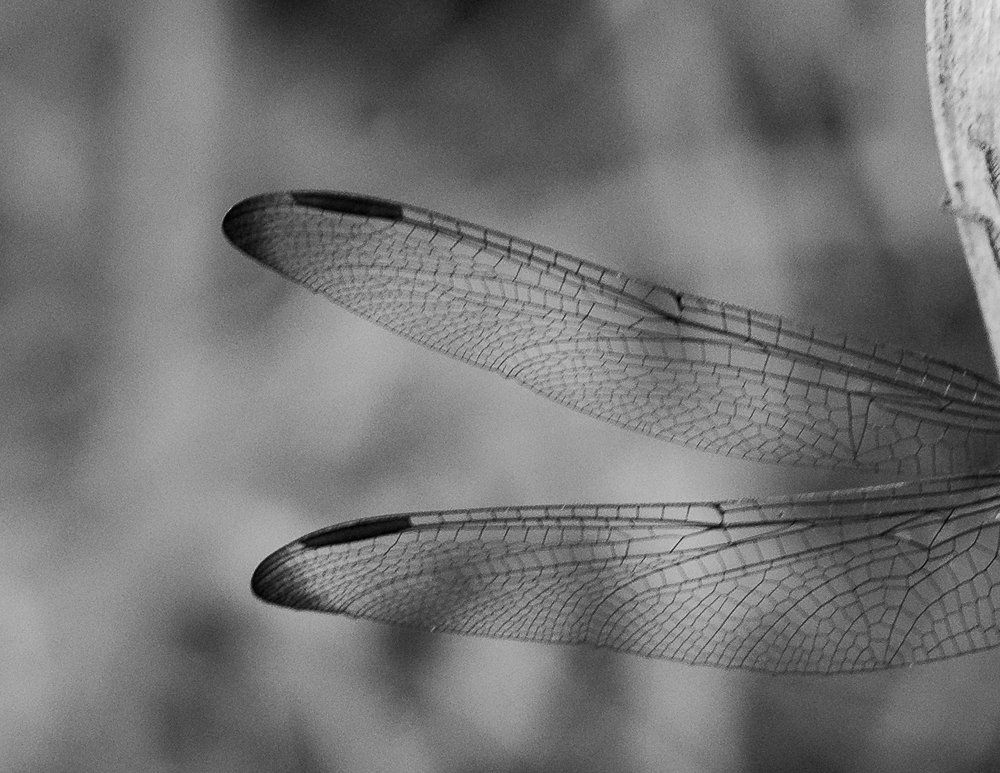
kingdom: Animalia
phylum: Arthropoda
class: Insecta
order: Odonata
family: Libellulidae
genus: Erythrodiplax
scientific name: Erythrodiplax umbrata
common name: Band-winged dragonlet
